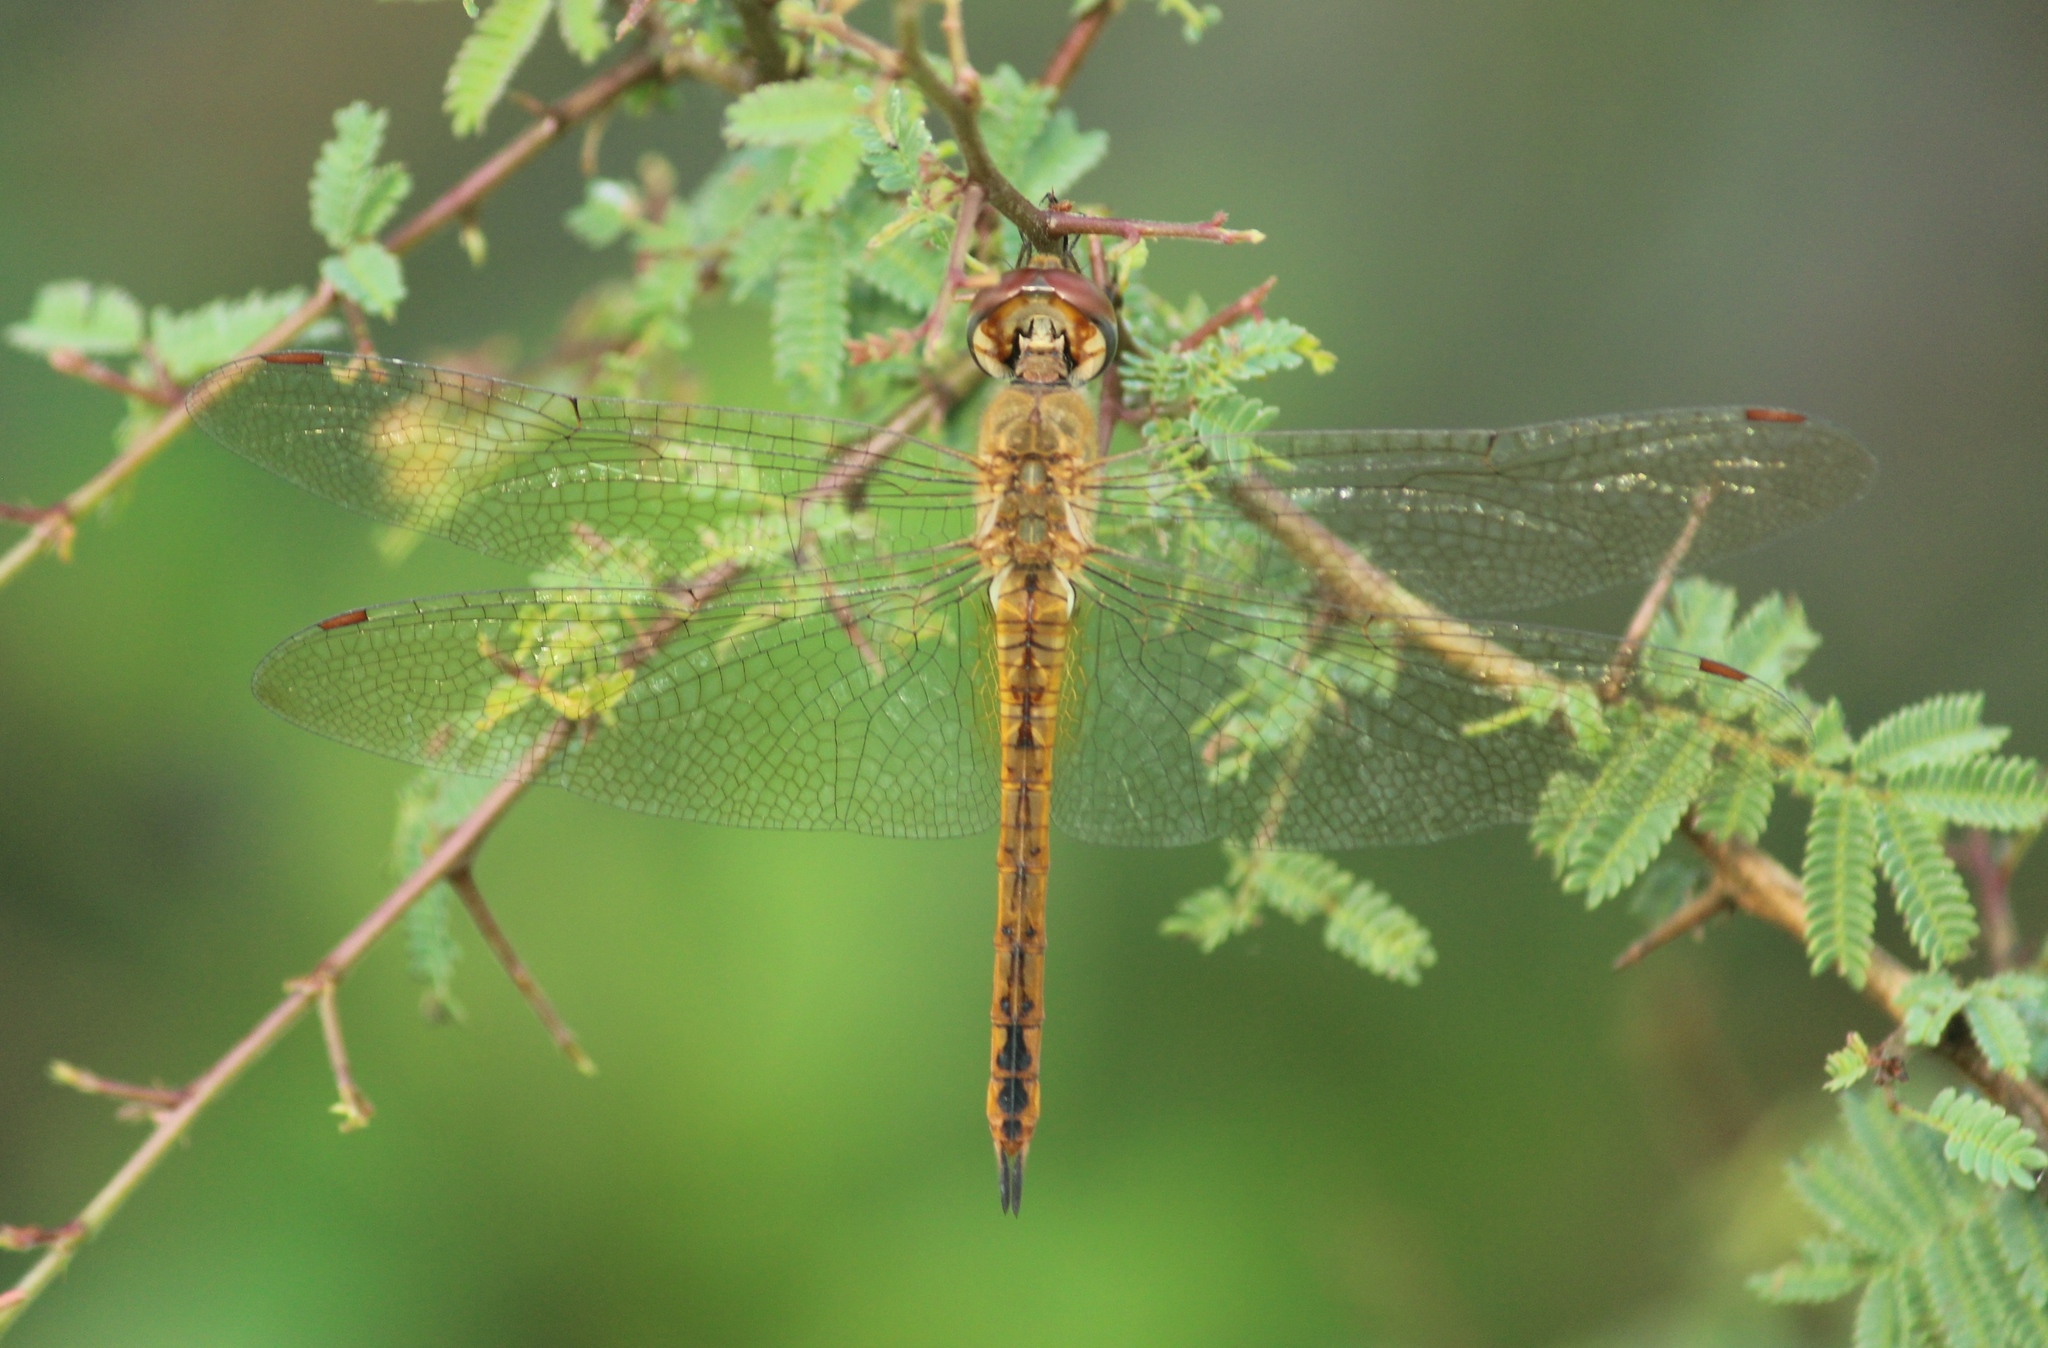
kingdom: Animalia
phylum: Arthropoda
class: Insecta
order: Odonata
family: Libellulidae
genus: Pantala
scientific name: Pantala flavescens
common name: Wandering glider
